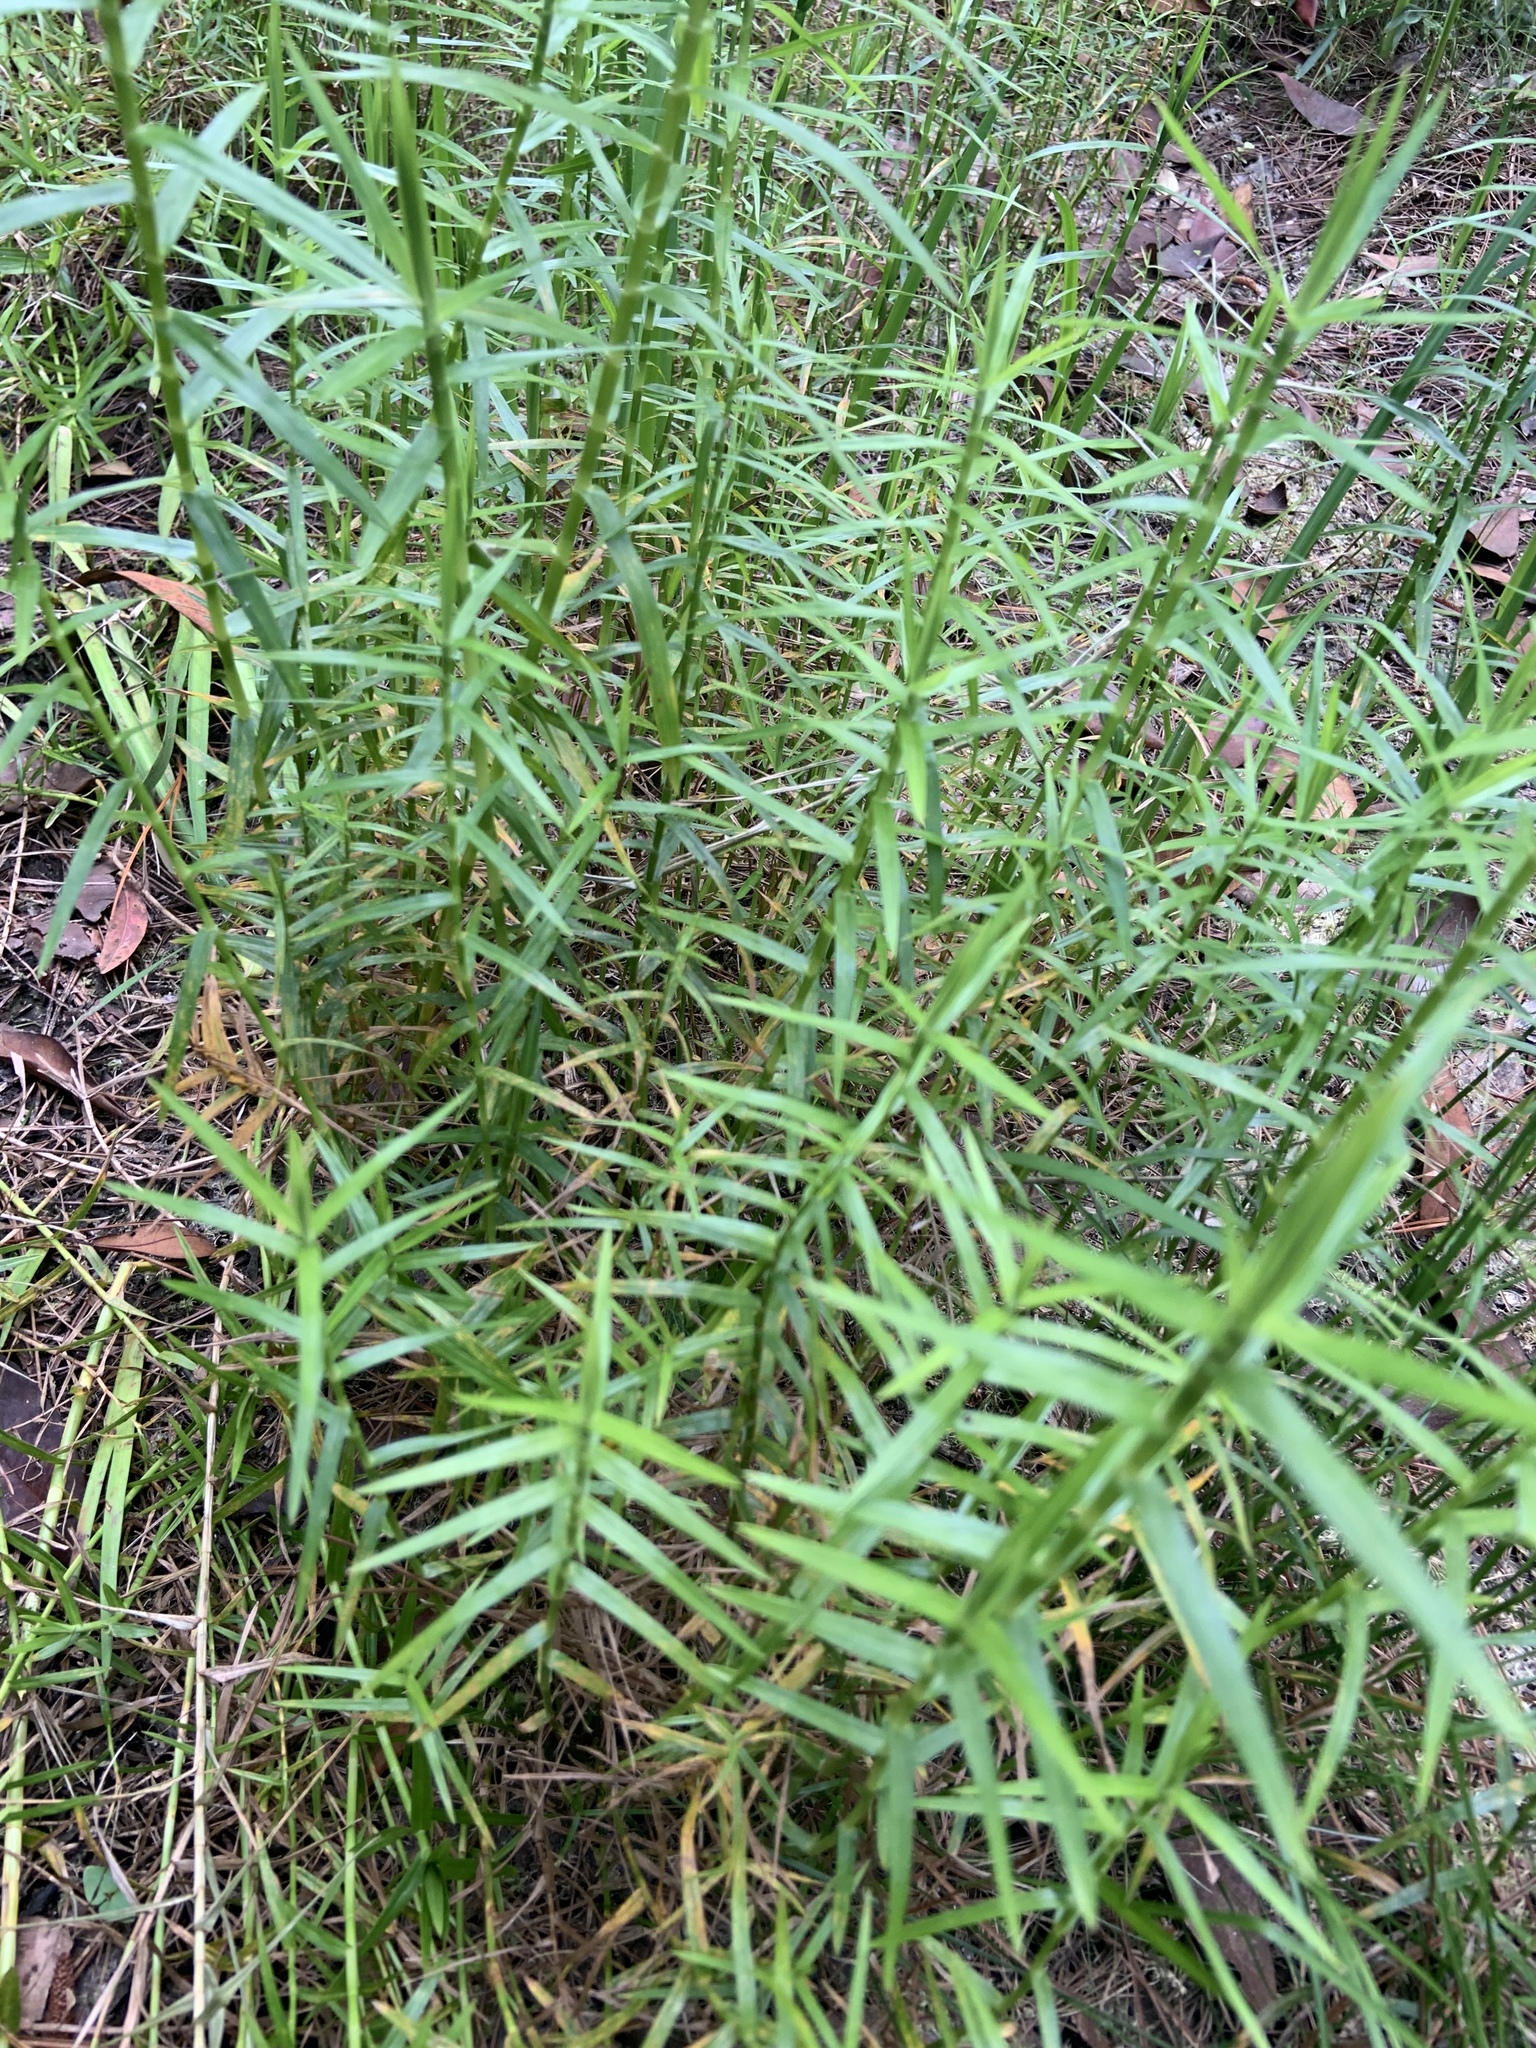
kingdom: Plantae
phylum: Tracheophyta
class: Liliopsida
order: Poales
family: Cyperaceae
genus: Dulichium
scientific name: Dulichium arundinaceum
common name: Three-way sedge
